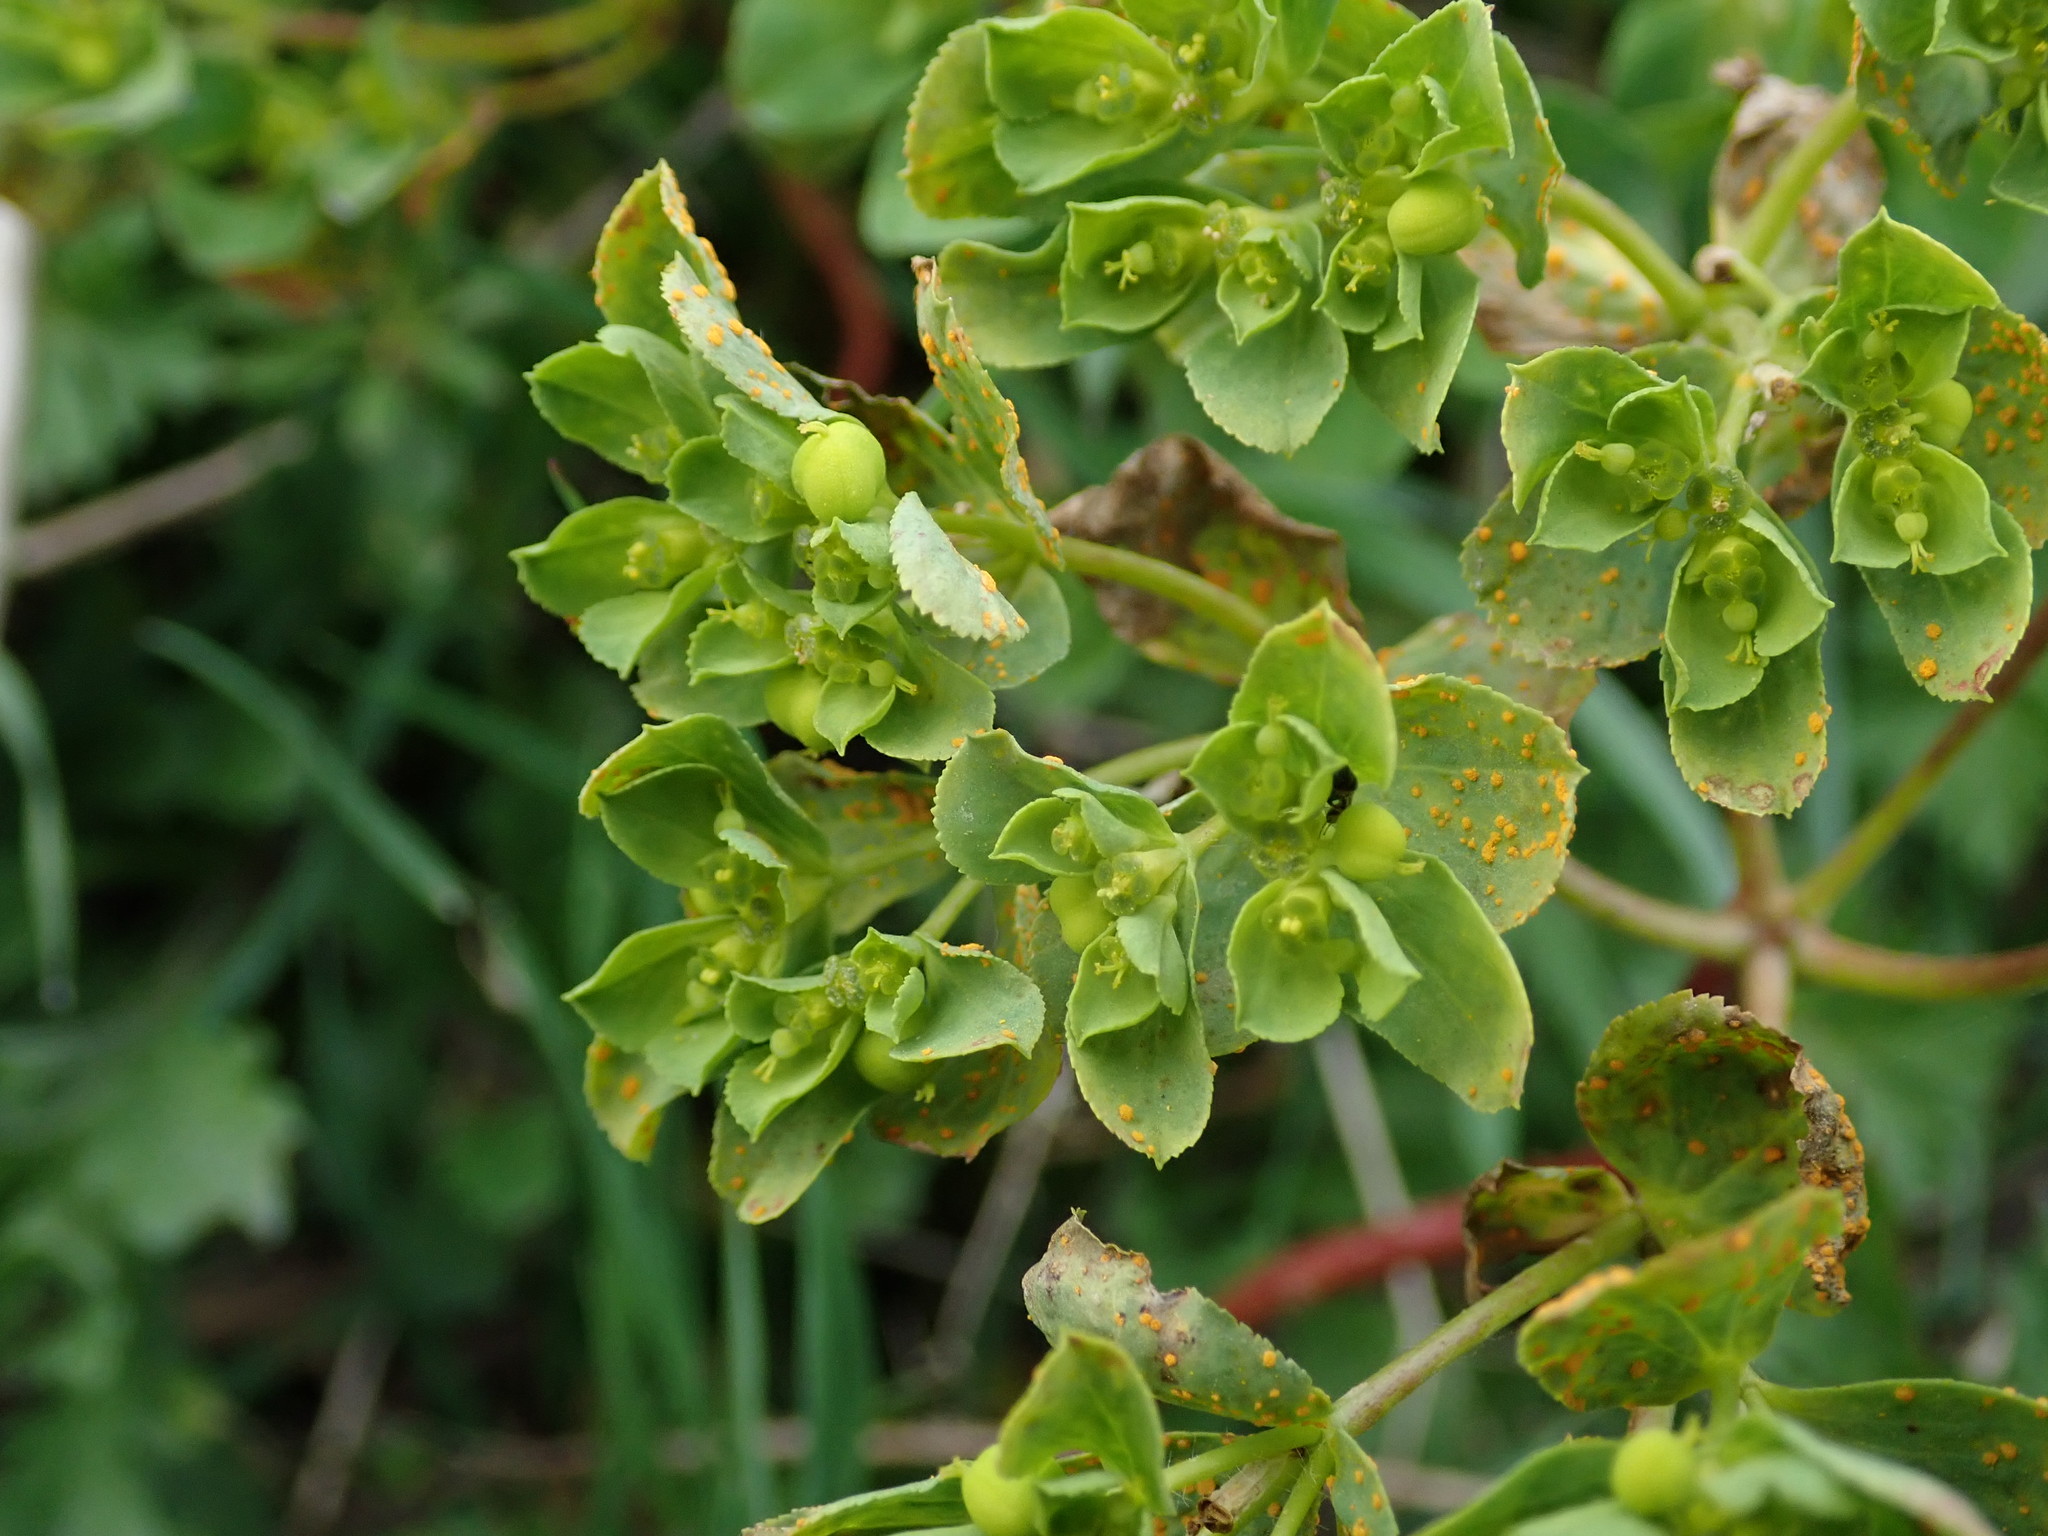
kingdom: Plantae
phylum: Tracheophyta
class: Magnoliopsida
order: Malpighiales
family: Euphorbiaceae
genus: Euphorbia
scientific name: Euphorbia helioscopia
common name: Sun spurge
